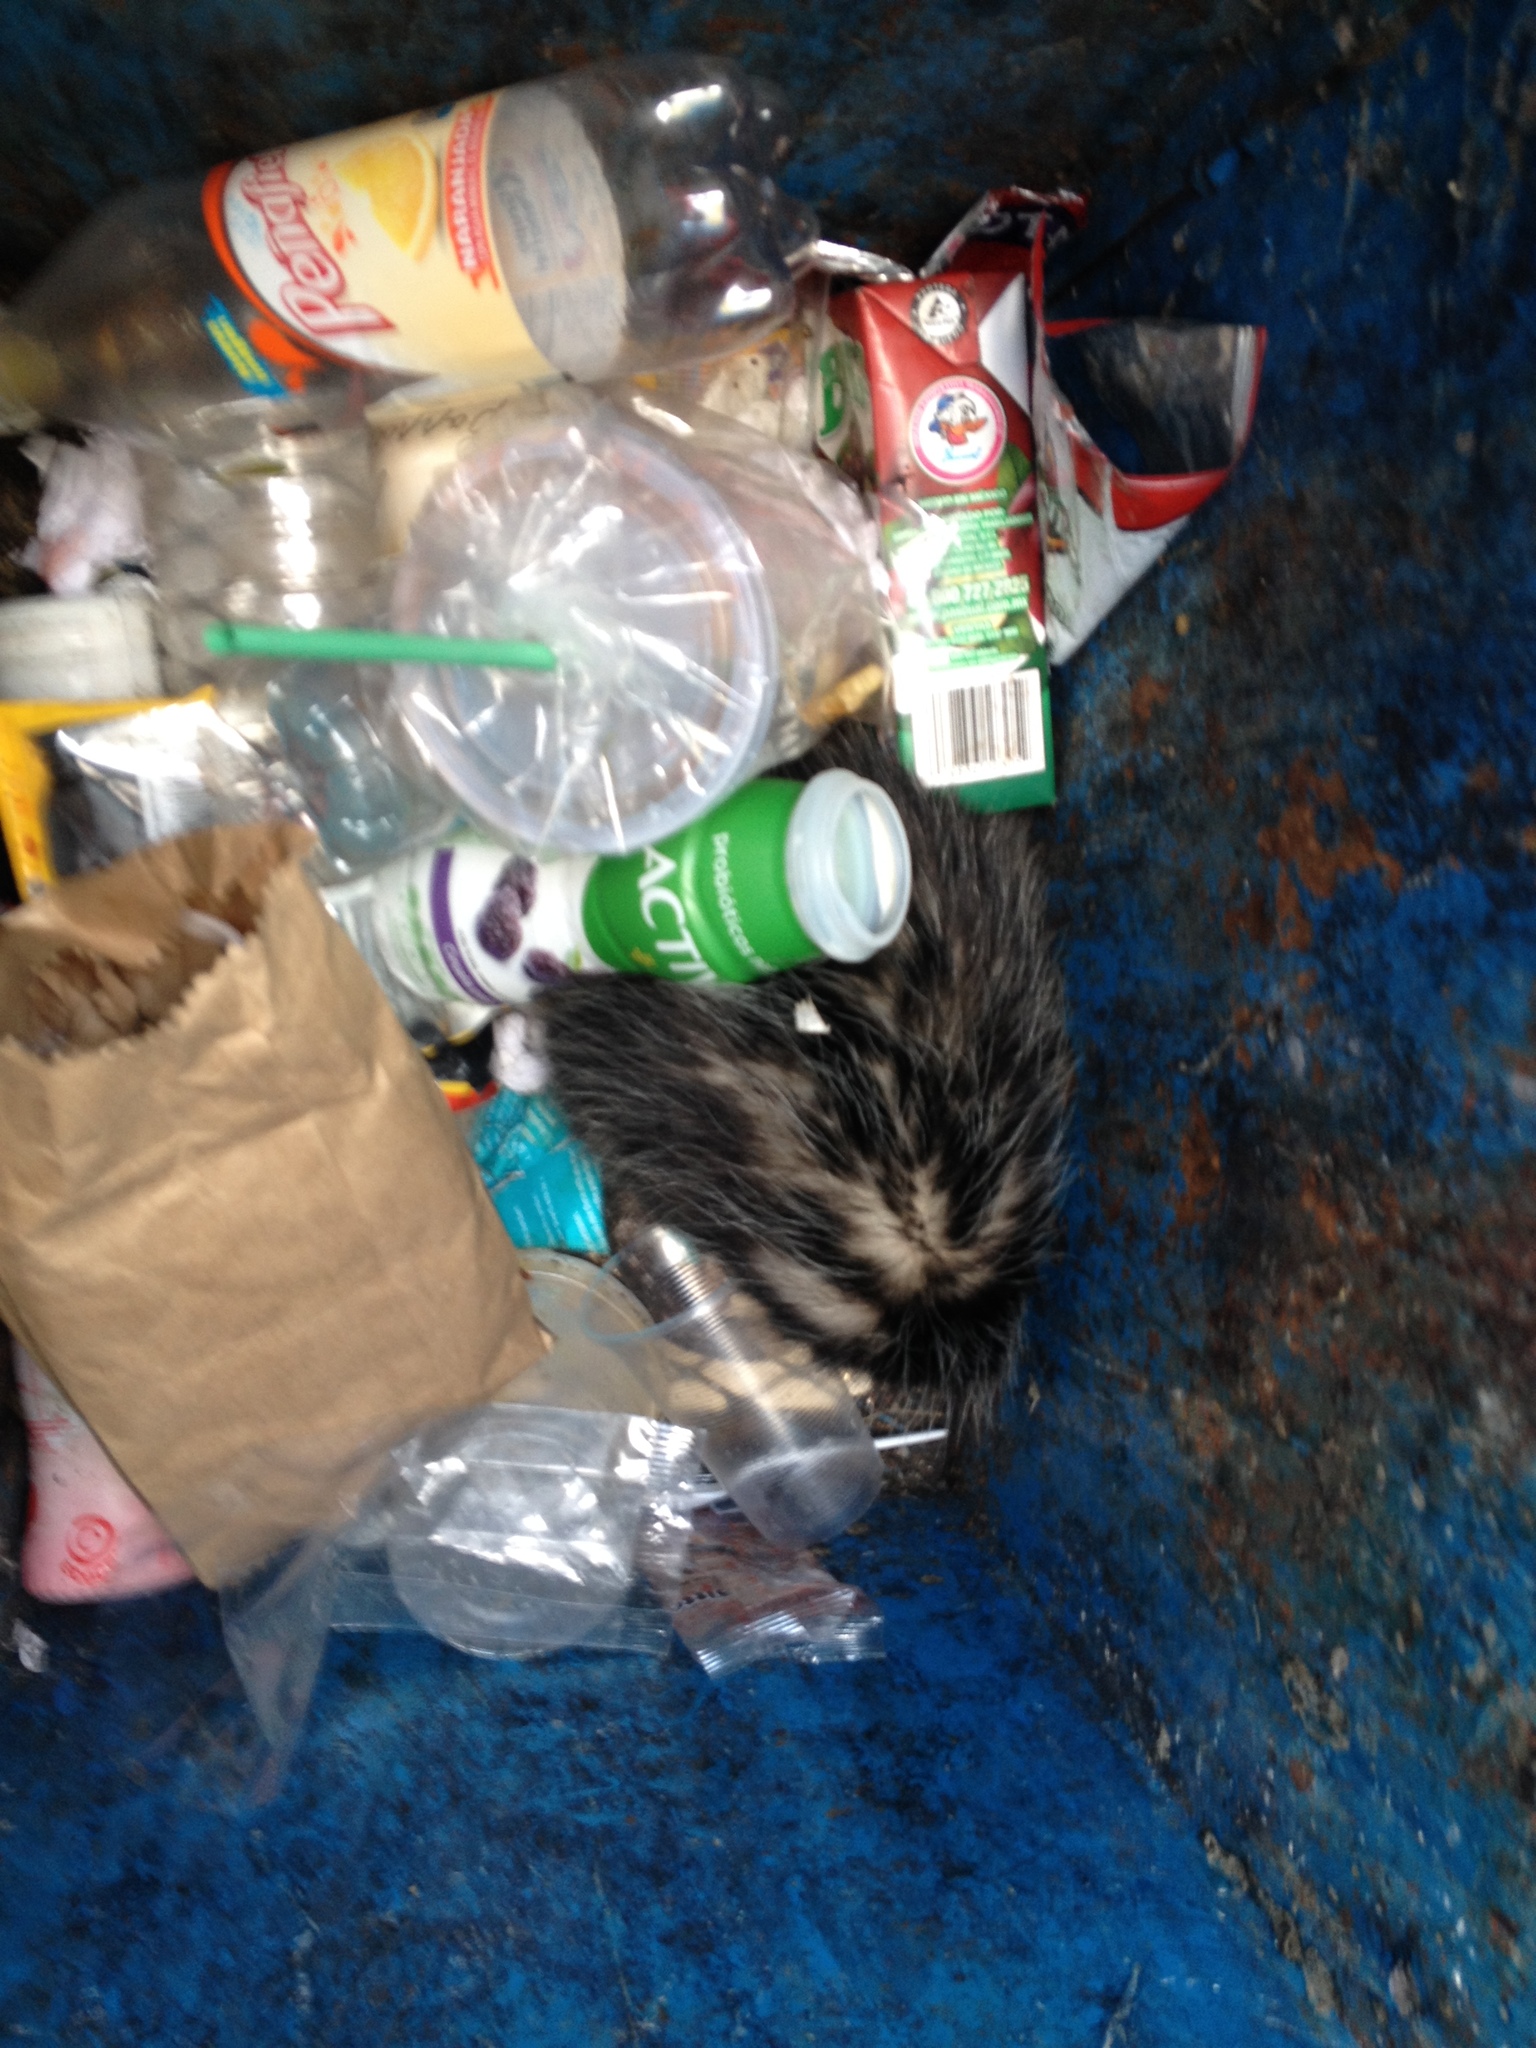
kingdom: Animalia
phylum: Chordata
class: Mammalia
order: Didelphimorphia
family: Didelphidae
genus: Didelphis
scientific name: Didelphis virginiana
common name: Virginia opossum
